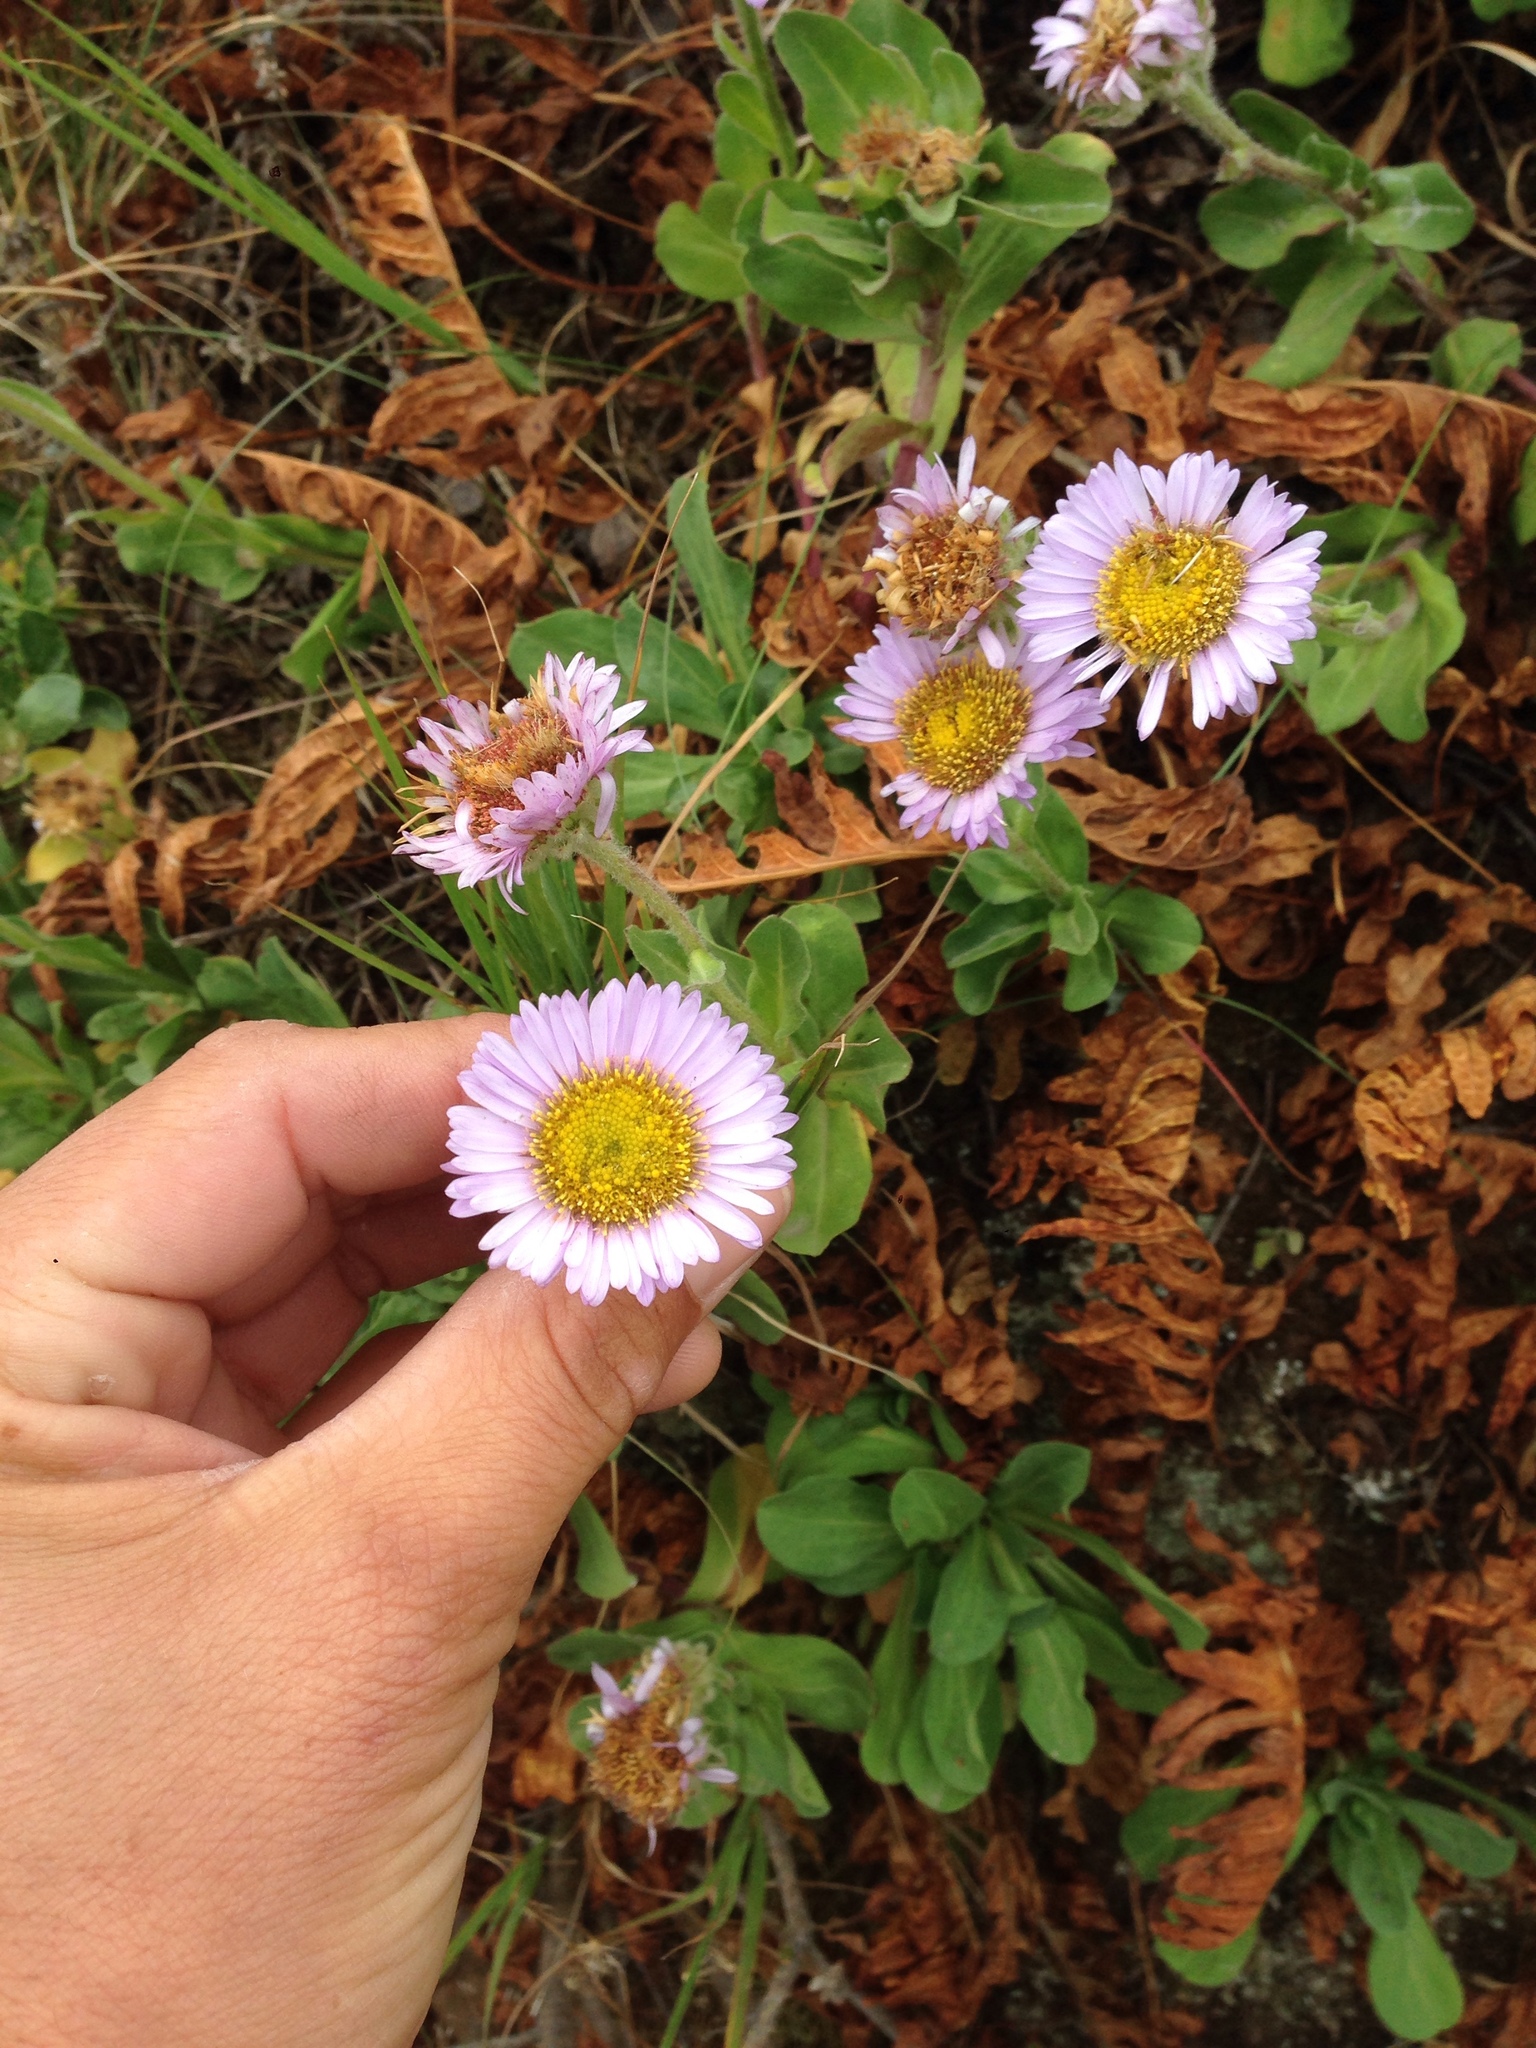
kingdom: Plantae
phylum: Tracheophyta
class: Magnoliopsida
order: Asterales
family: Asteraceae
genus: Erigeron
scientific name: Erigeron glaucus
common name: Seaside daisy
